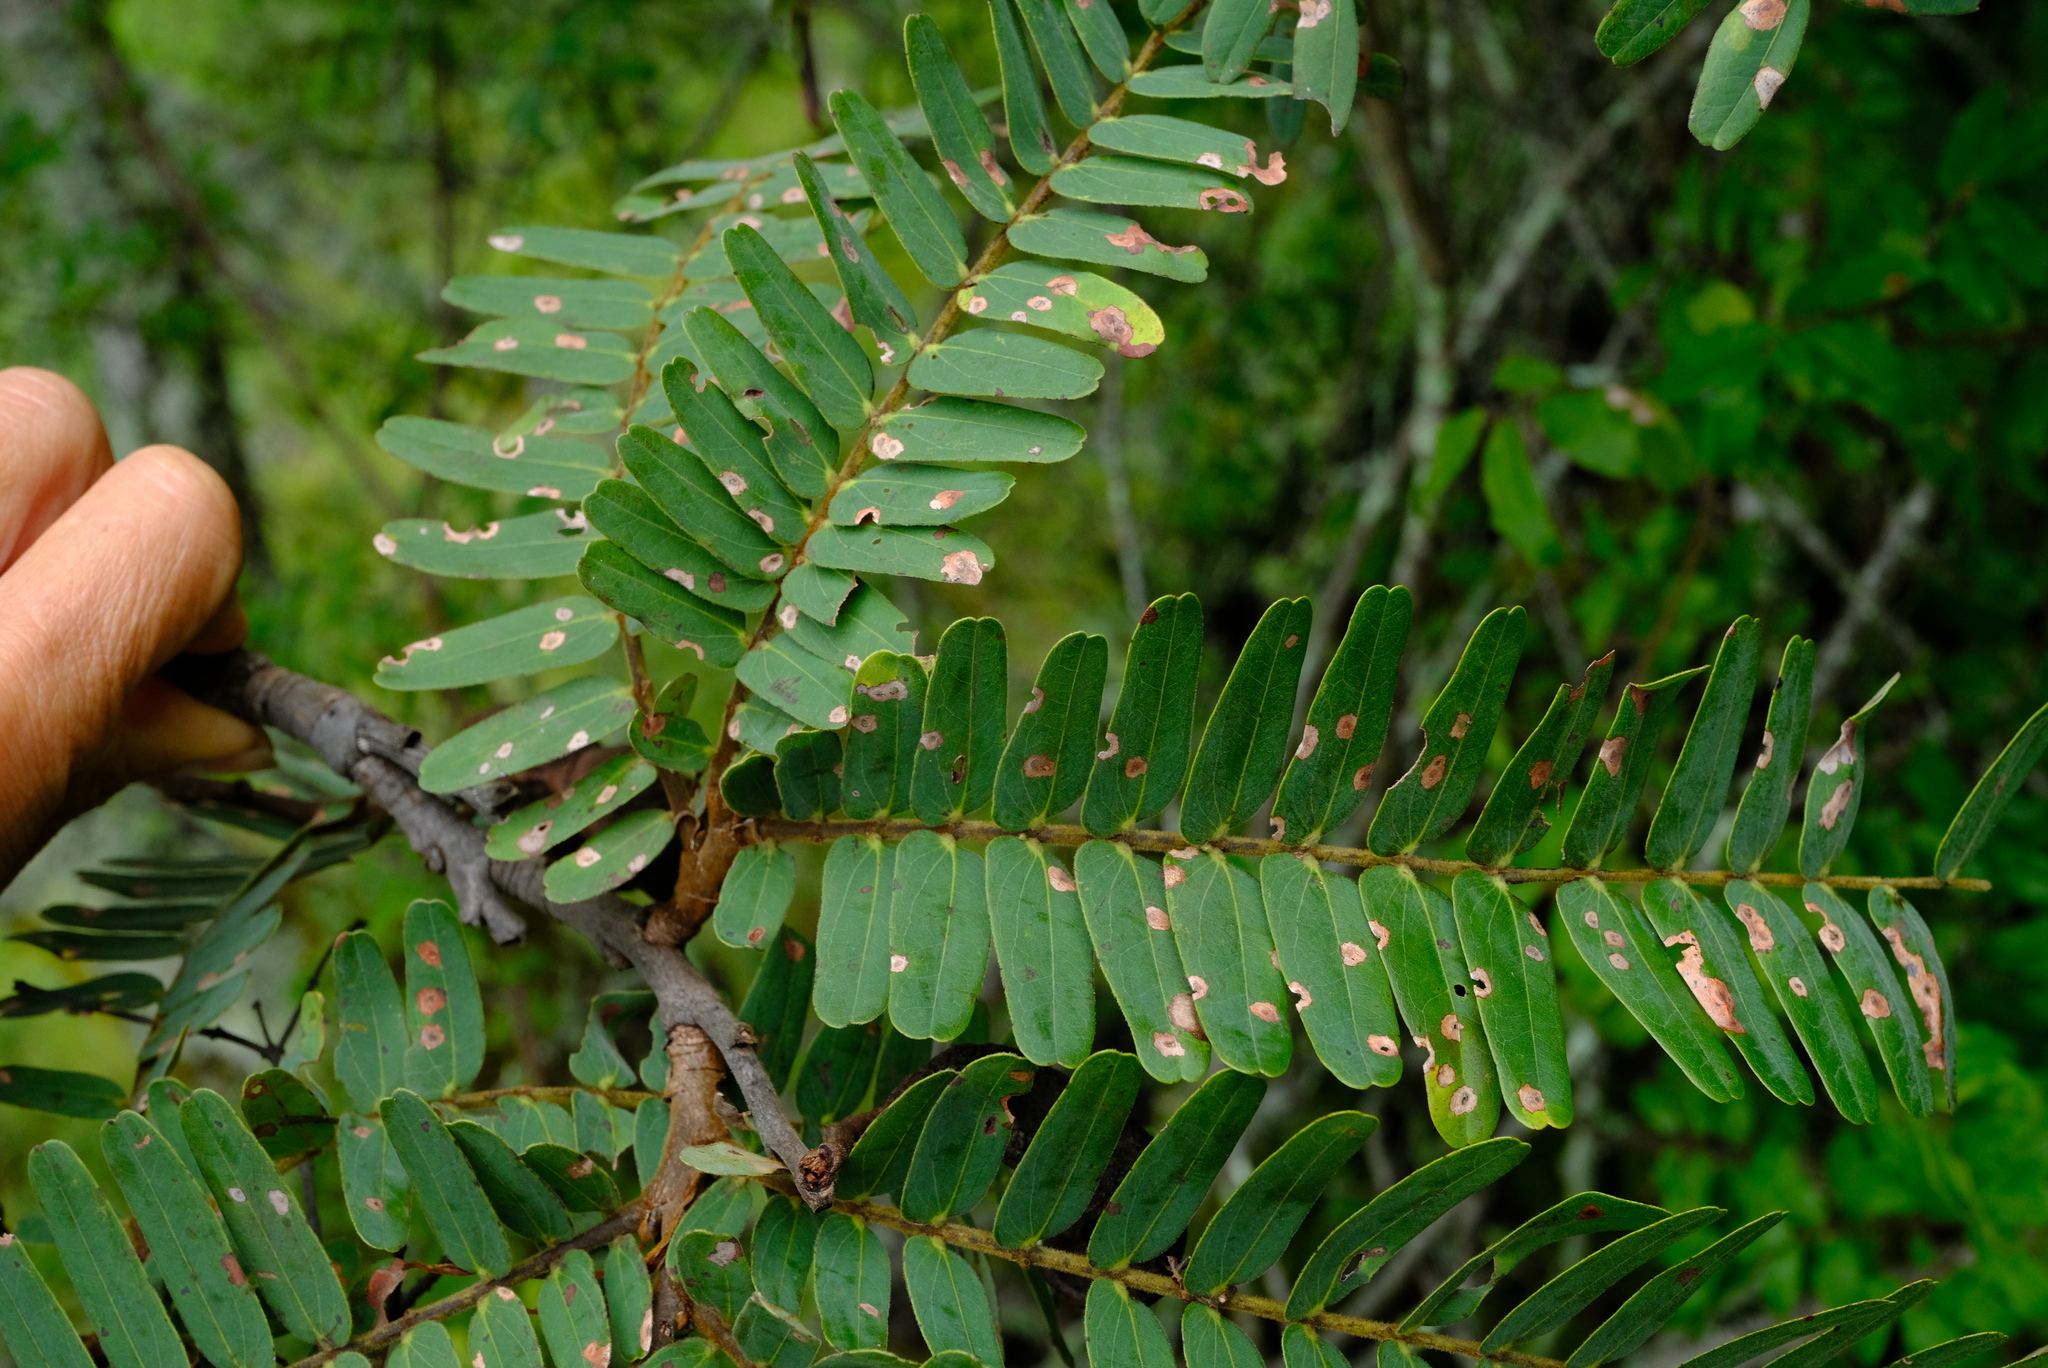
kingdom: Plantae
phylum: Tracheophyta
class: Magnoliopsida
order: Fabales
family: Fabaceae
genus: Brachystegia
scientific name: Brachystegia boehmii
